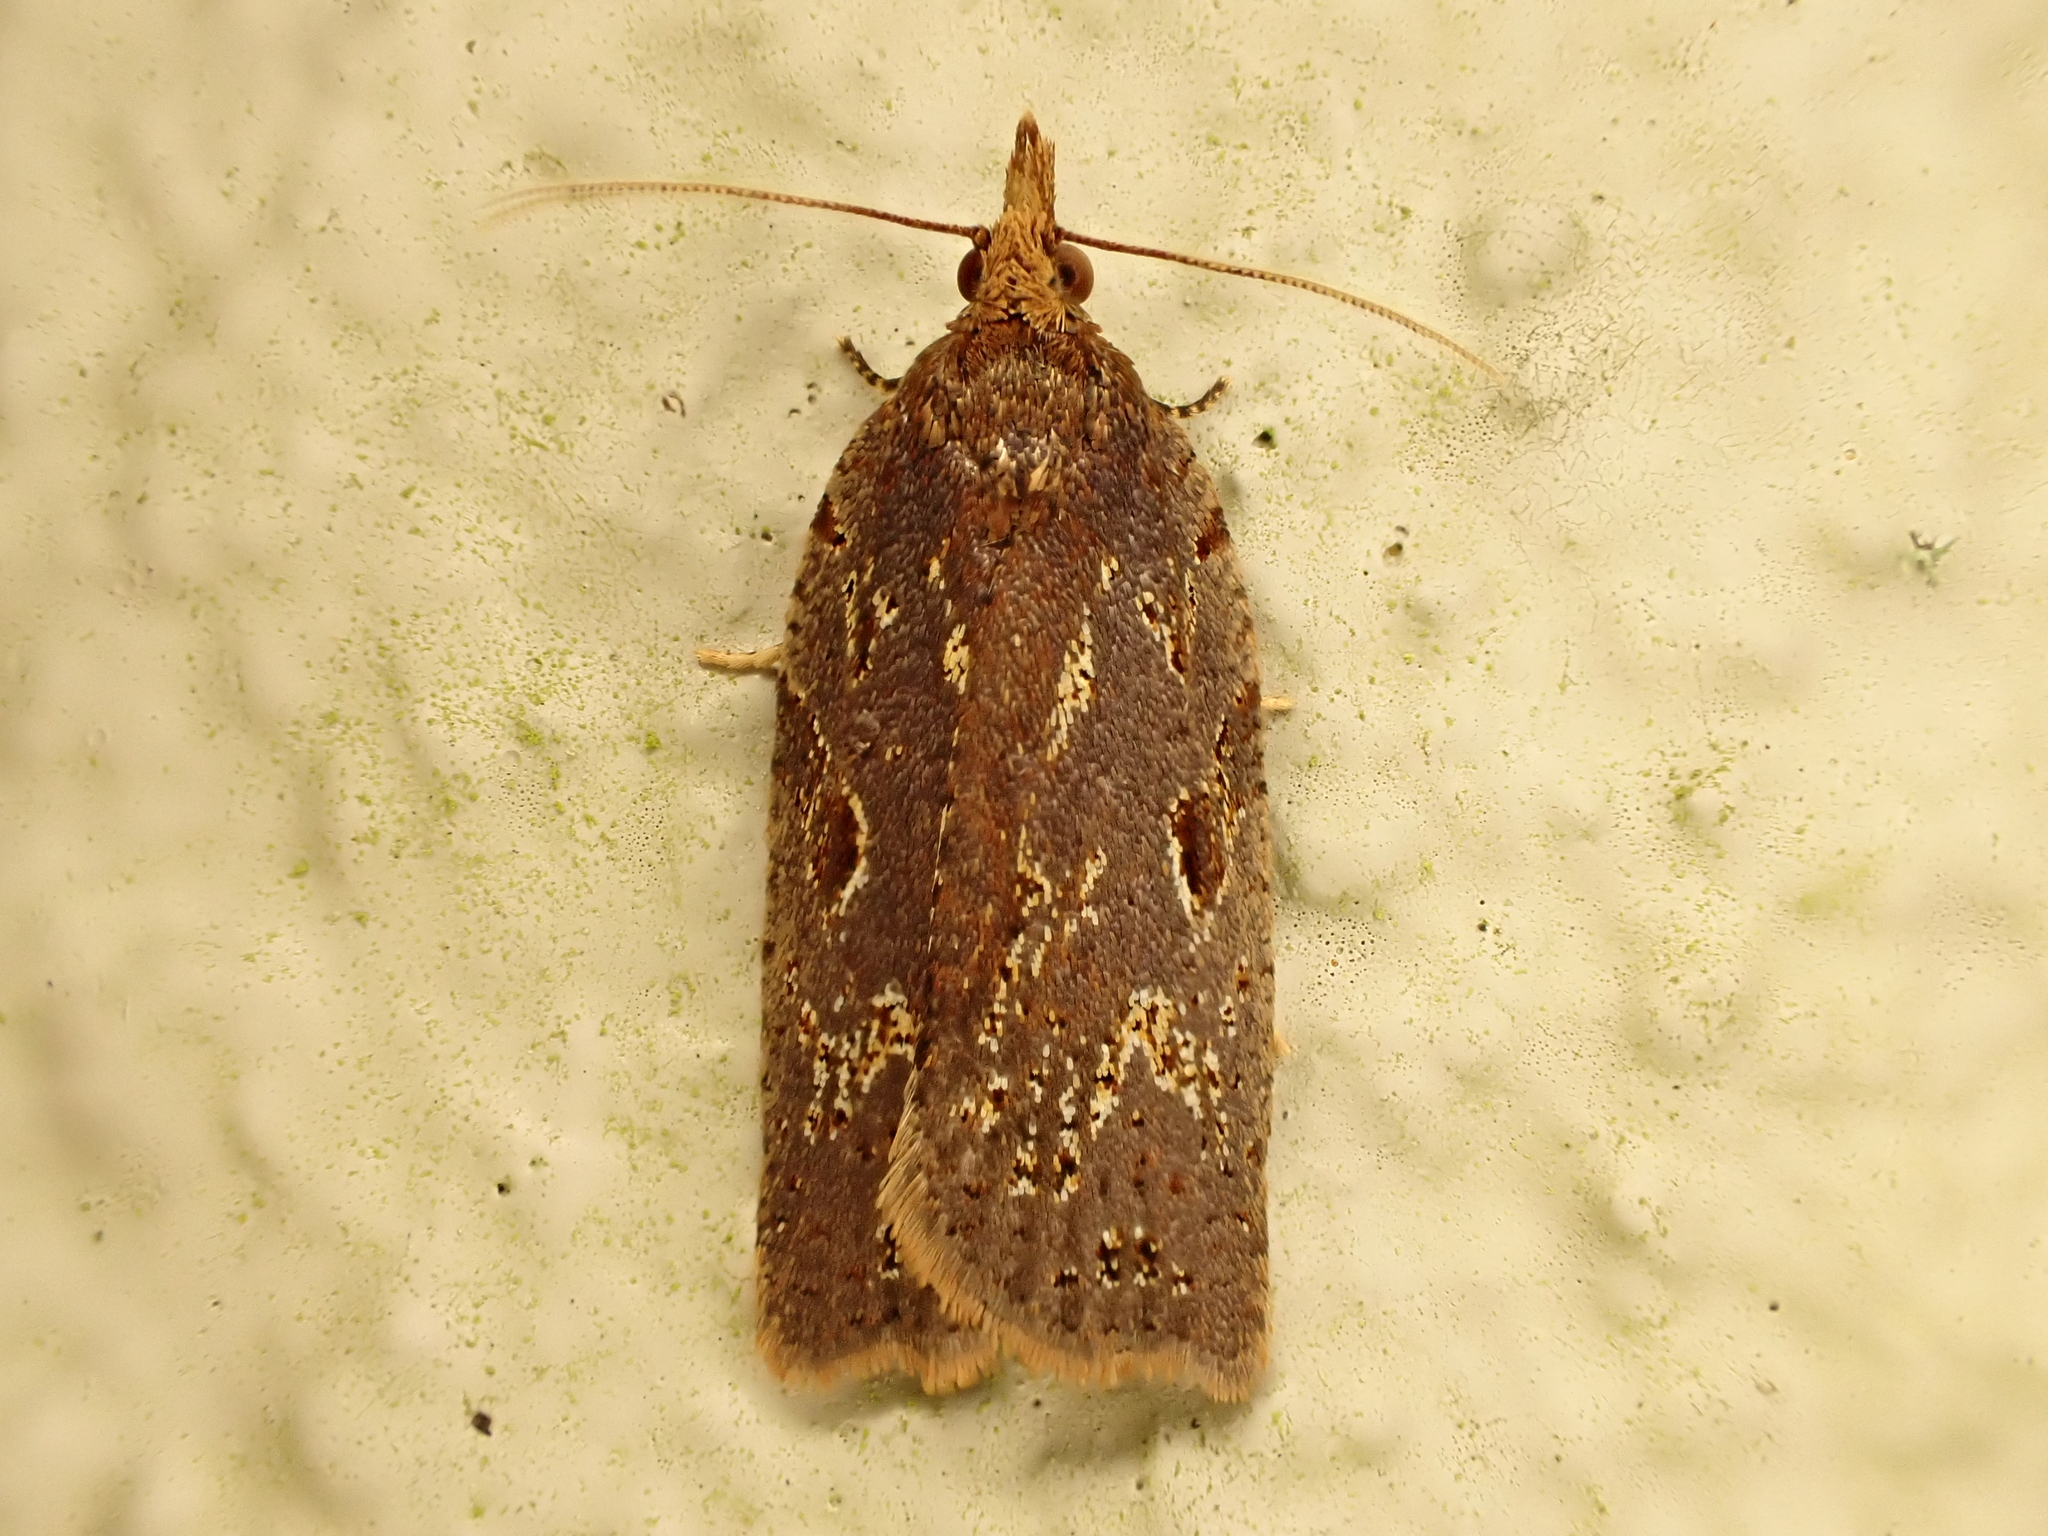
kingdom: Animalia
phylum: Arthropoda
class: Insecta
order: Lepidoptera
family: Tortricidae
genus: Ctenopseustis
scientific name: Ctenopseustis fraterna
